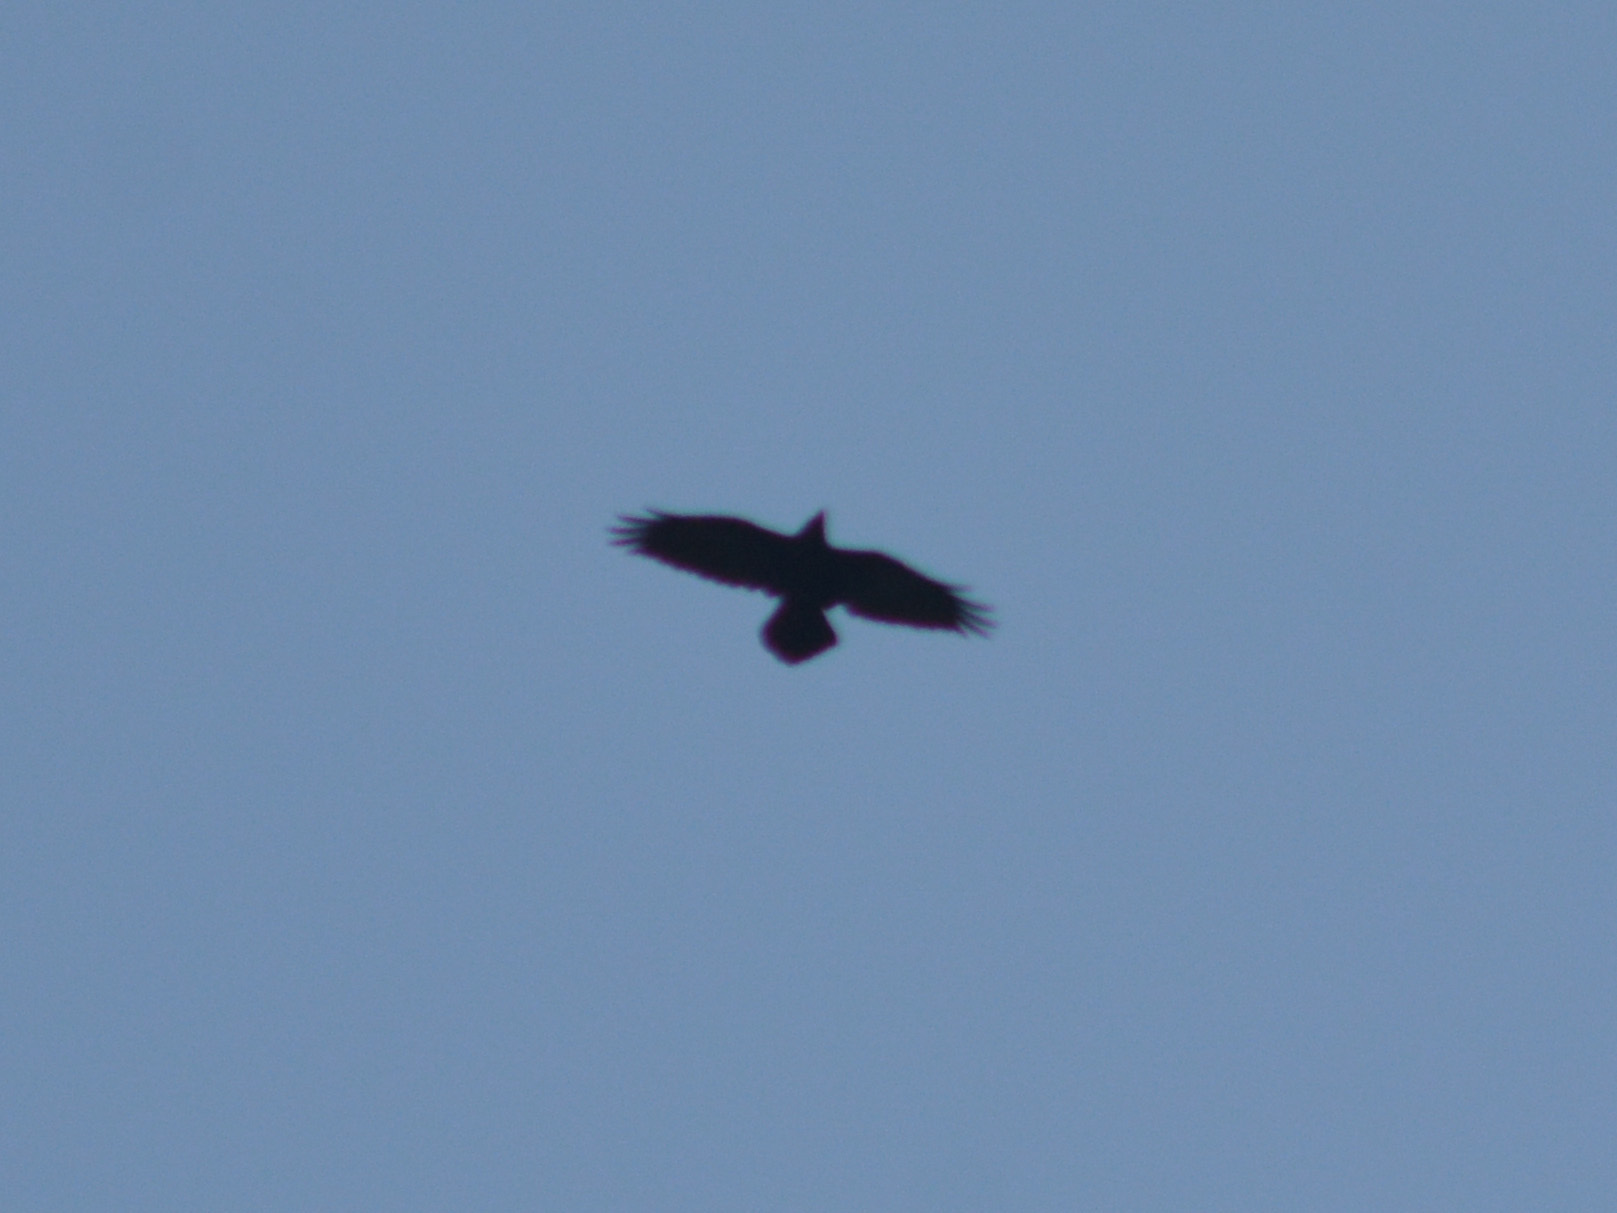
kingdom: Animalia
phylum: Chordata
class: Aves
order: Passeriformes
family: Corvidae
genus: Corvus
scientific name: Corvus corax
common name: Common raven
